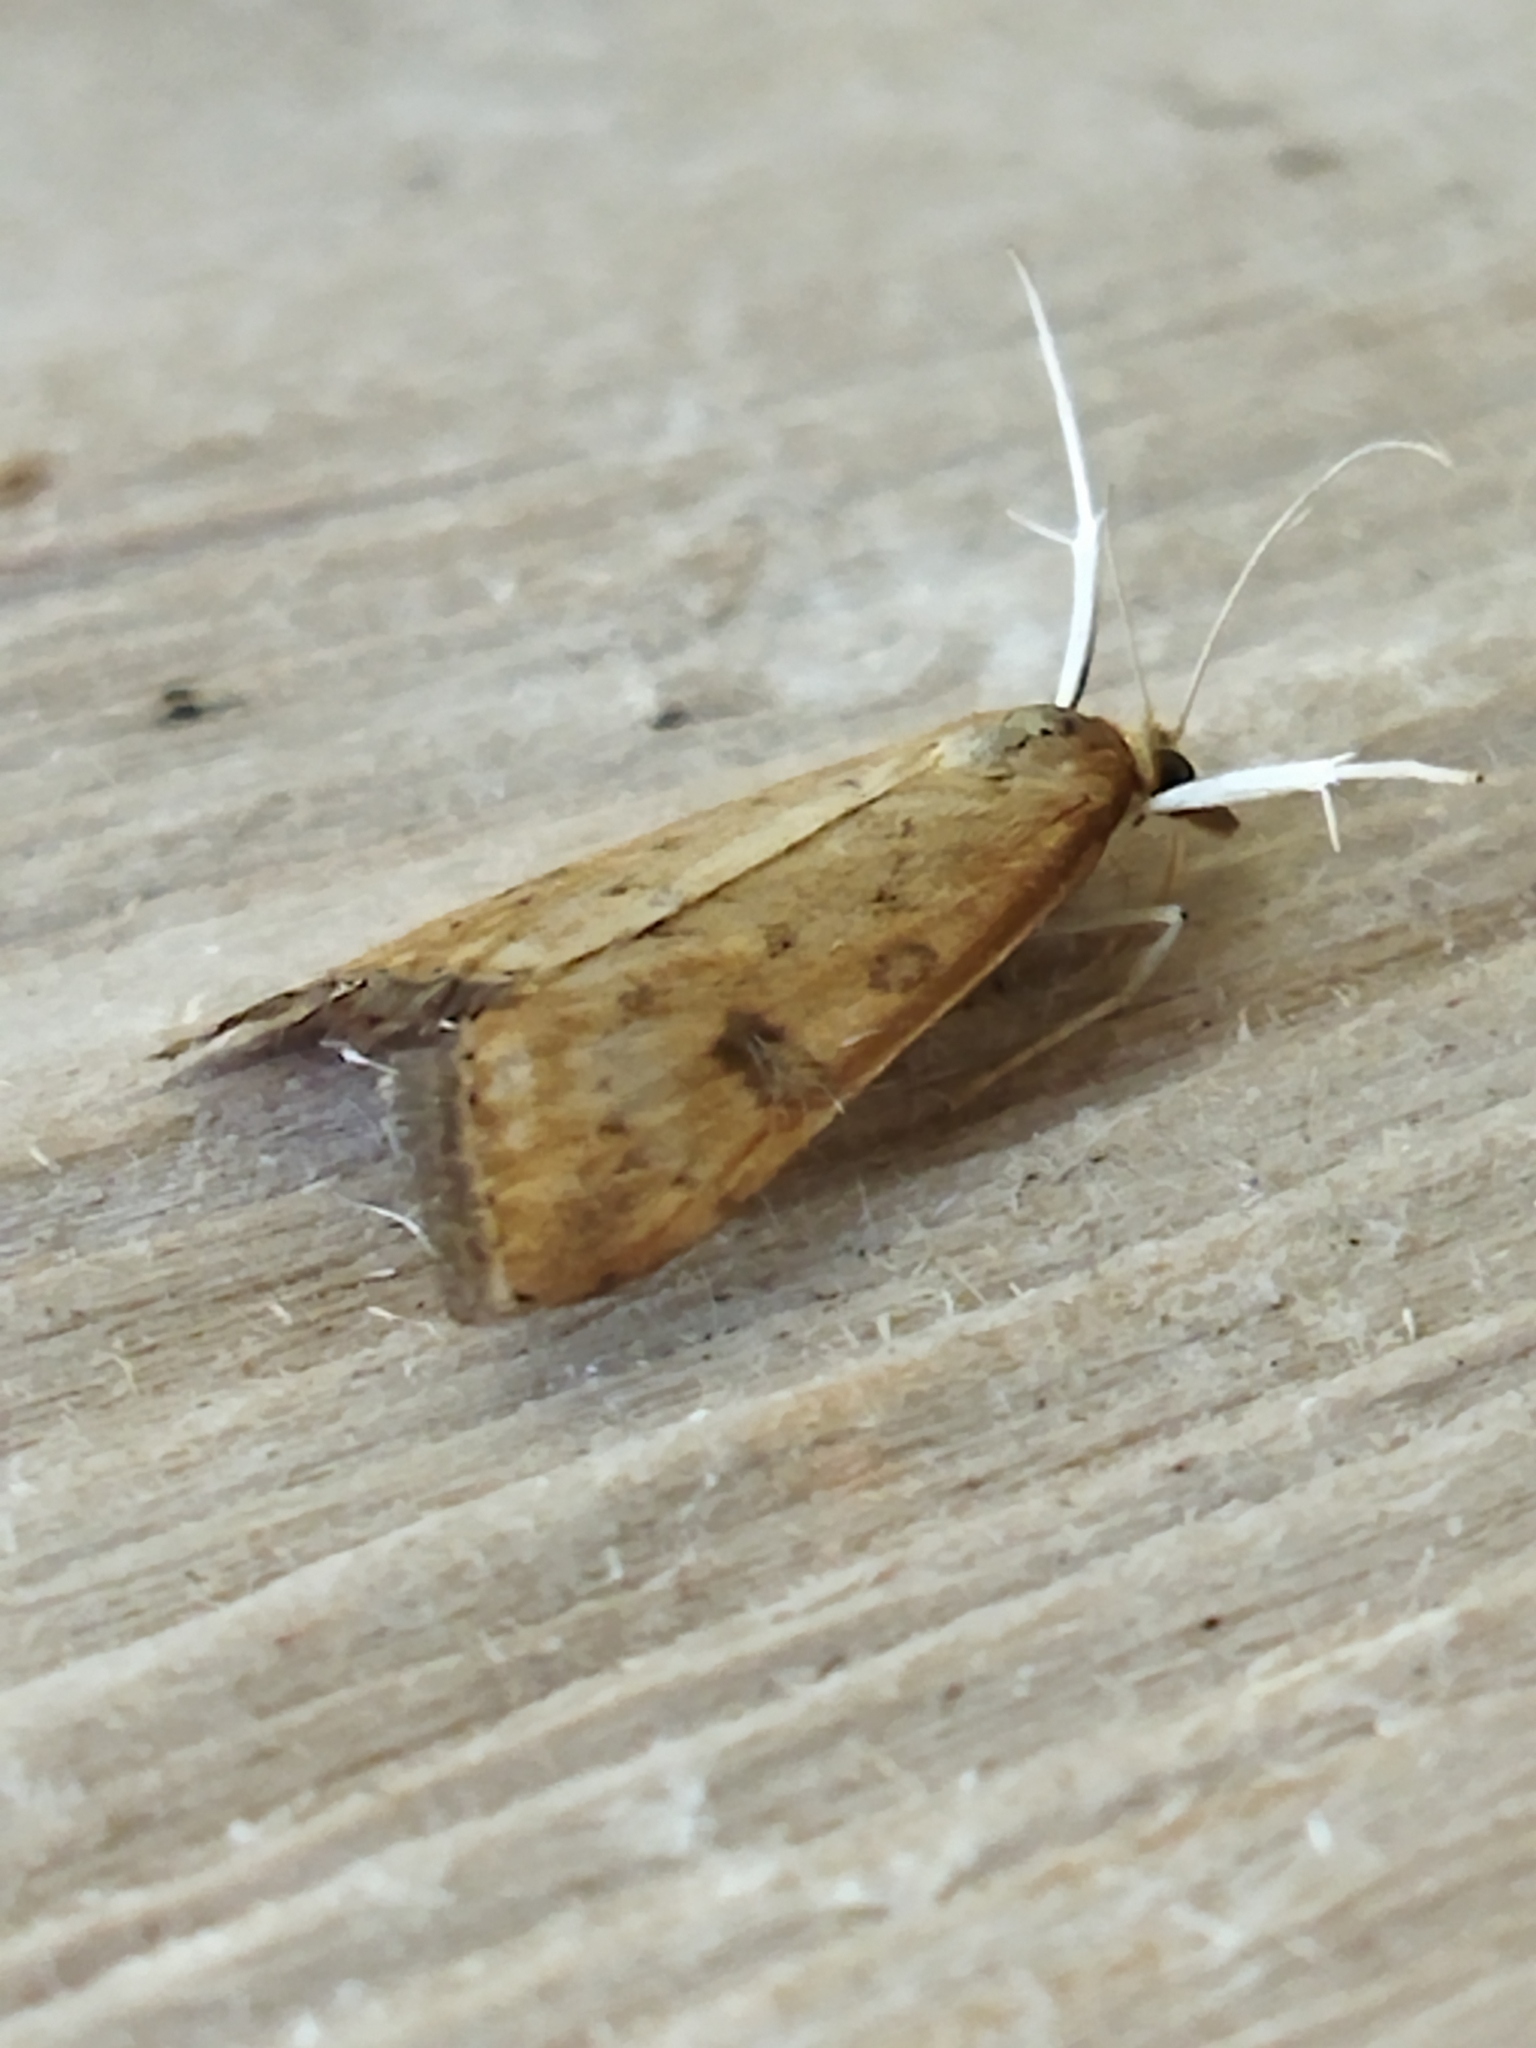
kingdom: Animalia
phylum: Arthropoda
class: Insecta
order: Lepidoptera
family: Crambidae
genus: Udea
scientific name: Udea ferrugalis
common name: Rusty dot
